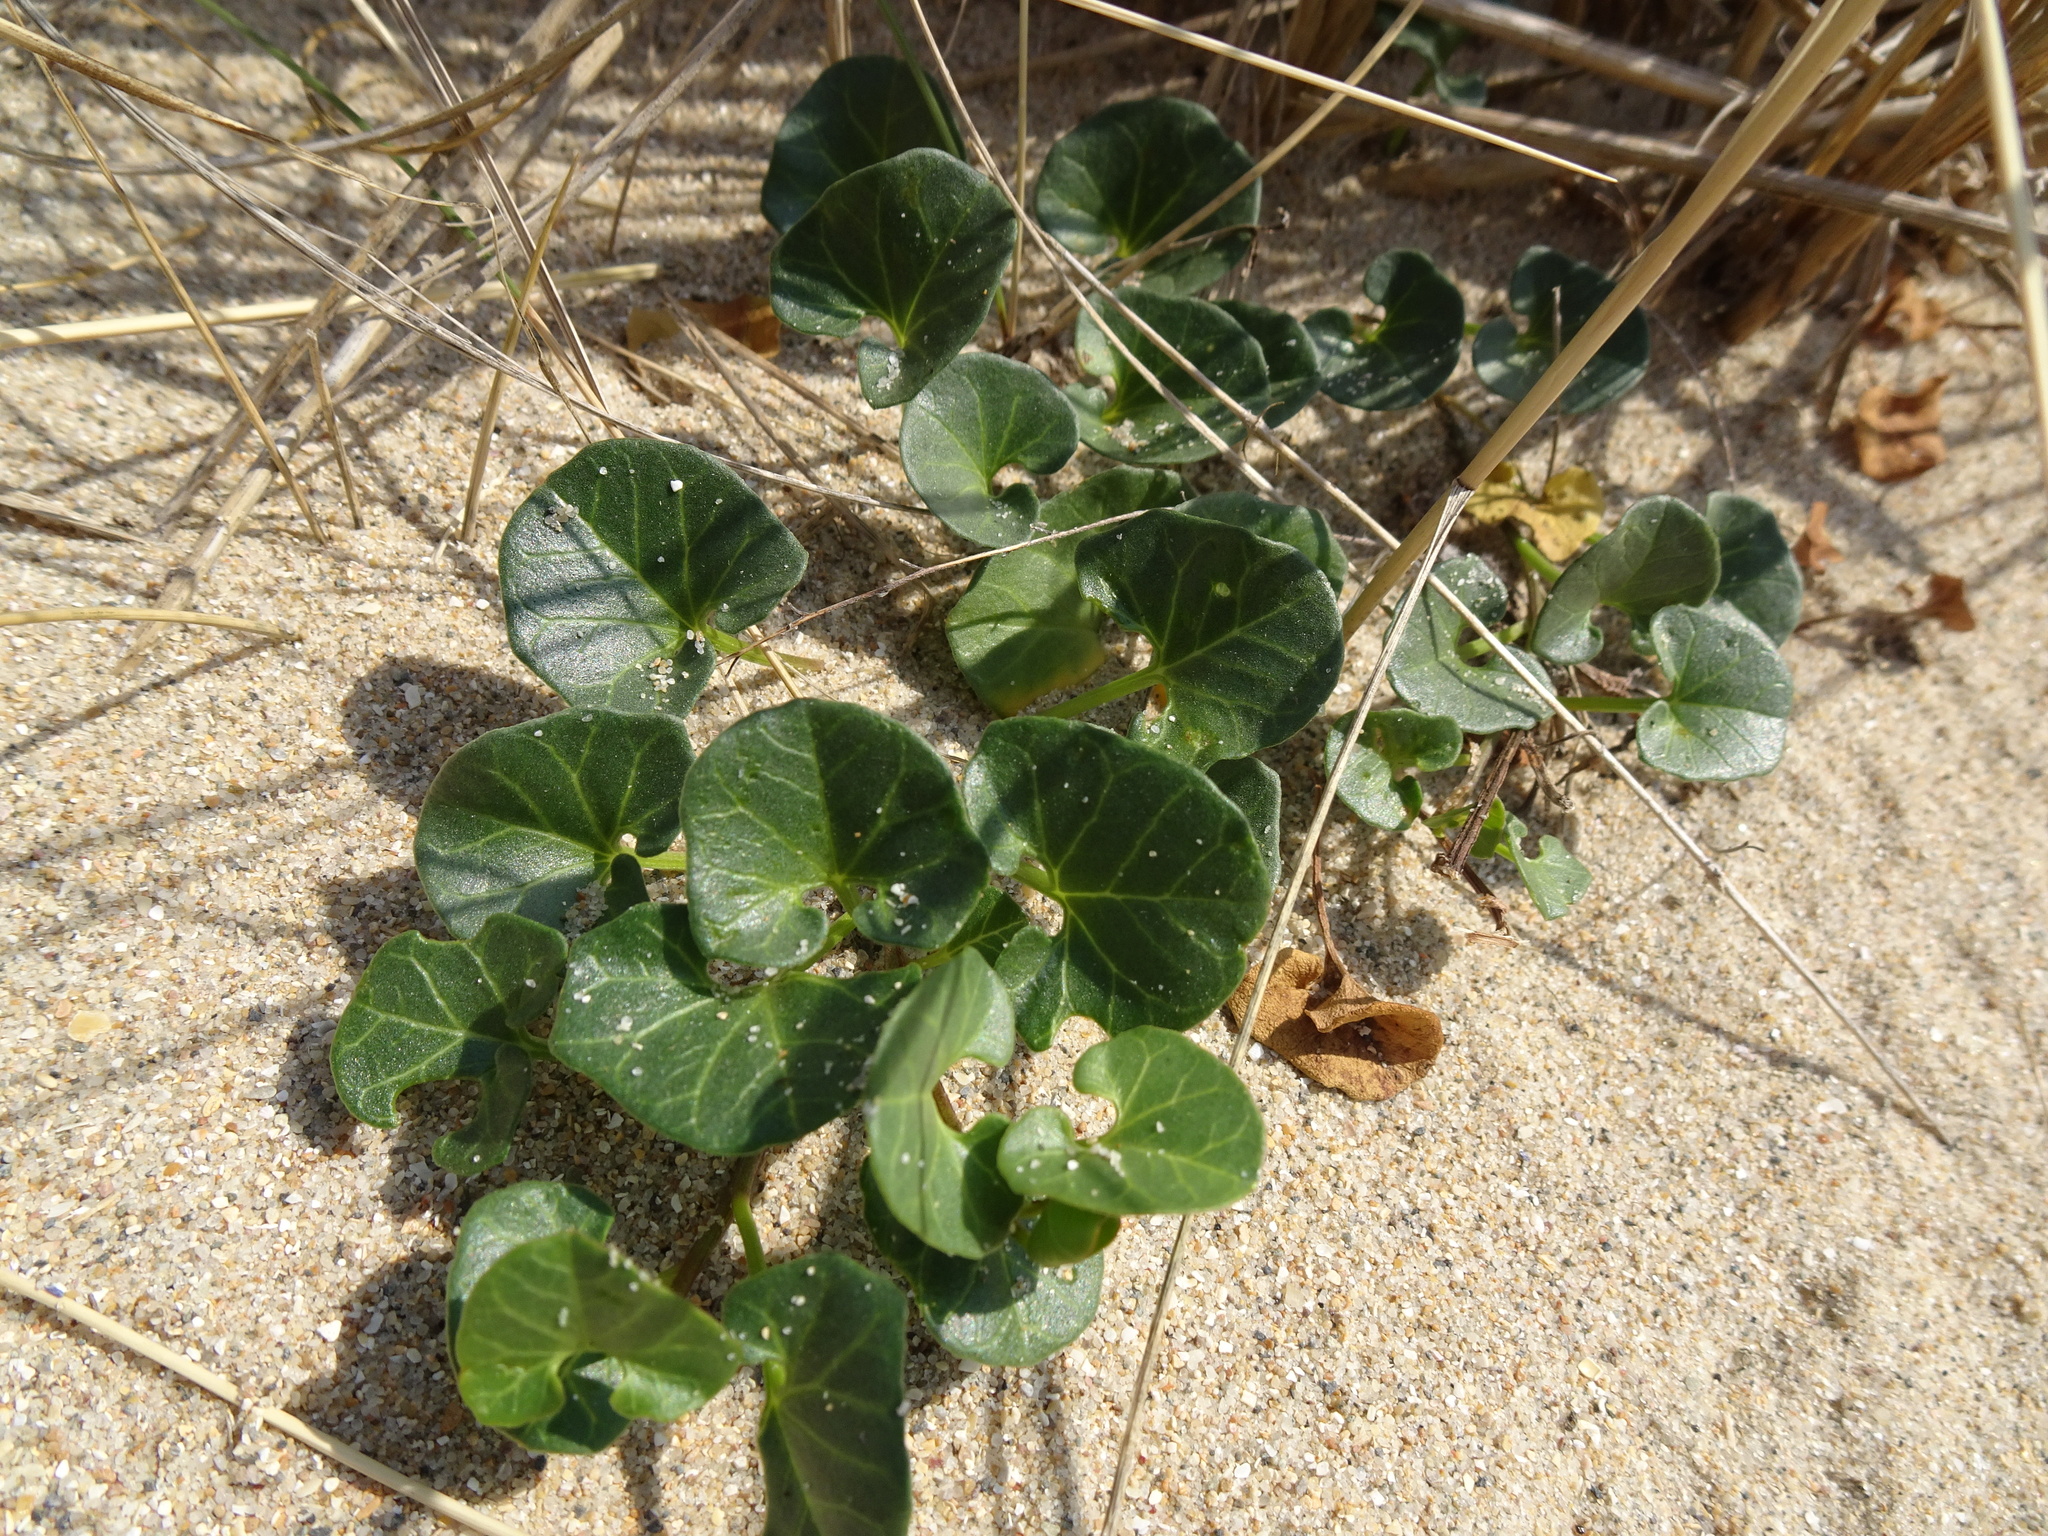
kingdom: Plantae
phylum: Tracheophyta
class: Magnoliopsida
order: Solanales
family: Convolvulaceae
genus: Calystegia
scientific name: Calystegia soldanella
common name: Sea bindweed
